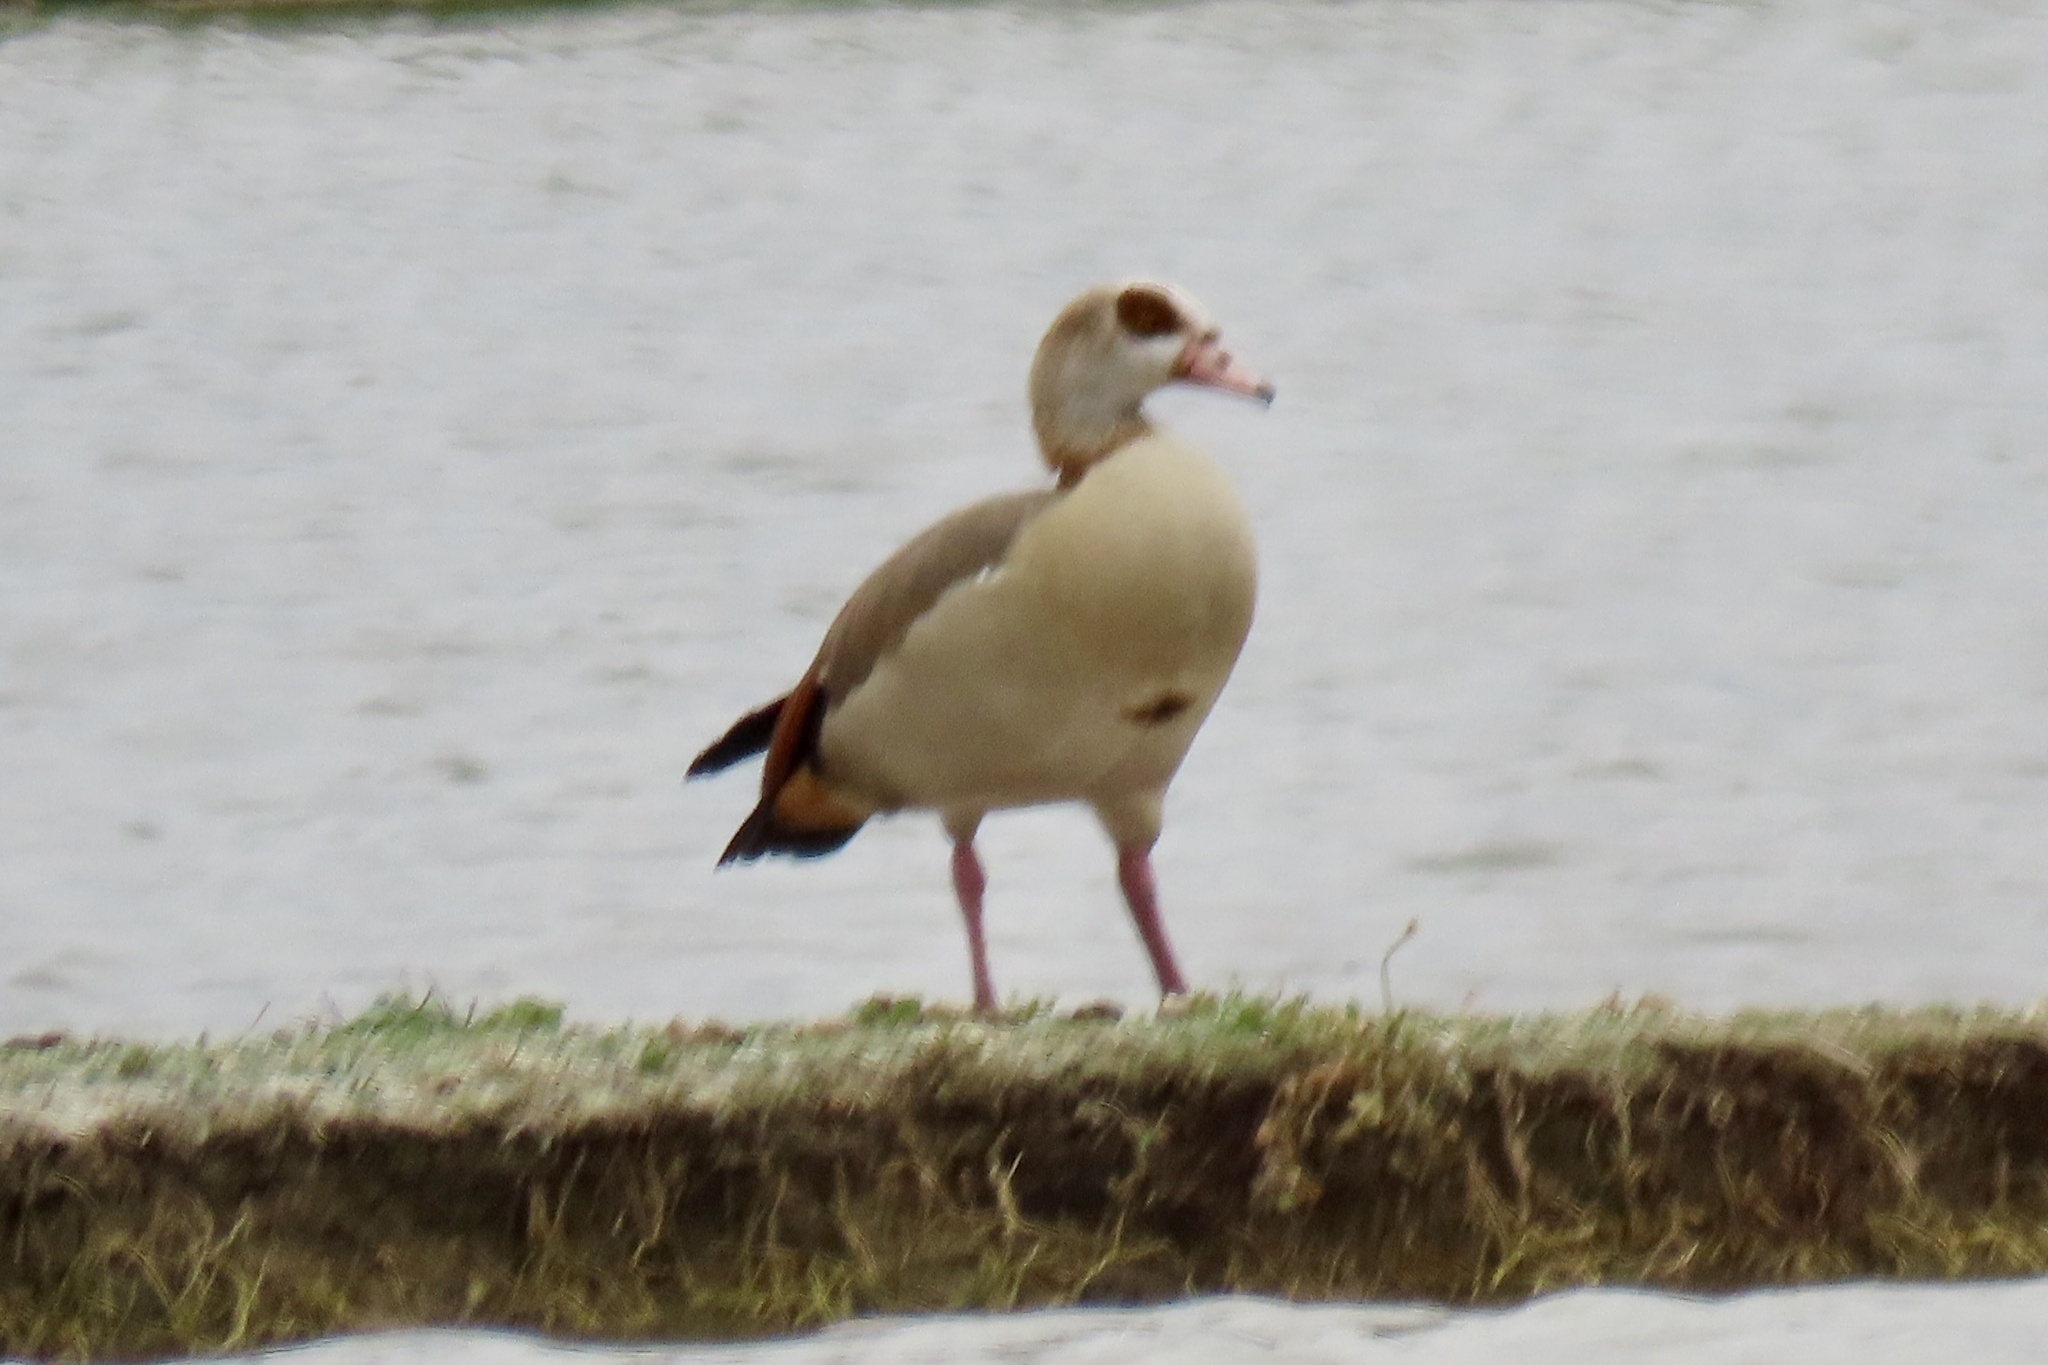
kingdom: Animalia
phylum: Chordata
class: Aves
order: Anseriformes
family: Anatidae
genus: Alopochen
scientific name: Alopochen aegyptiaca
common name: Egyptian goose
